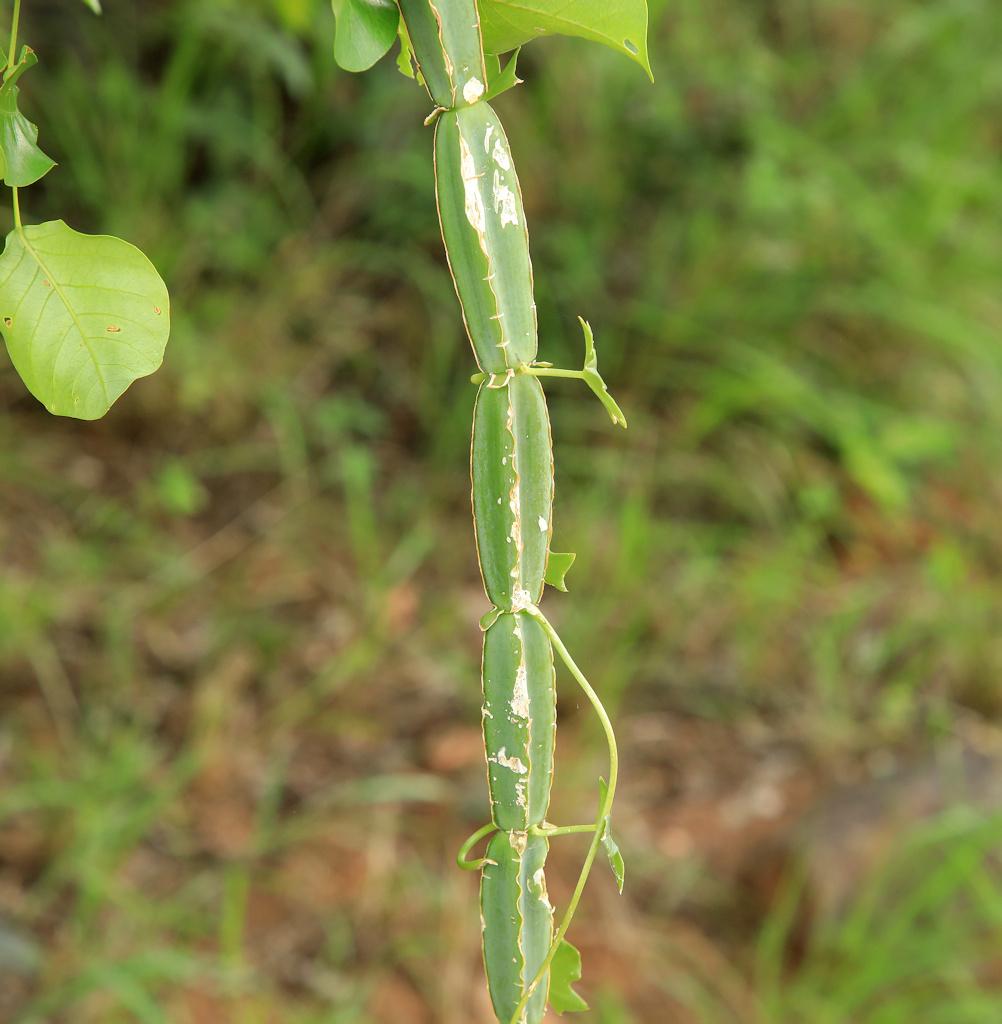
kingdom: Plantae
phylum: Tracheophyta
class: Magnoliopsida
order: Vitales
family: Vitaceae
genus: Cissus
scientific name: Cissus quadrangularis
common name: Veldt-grape
